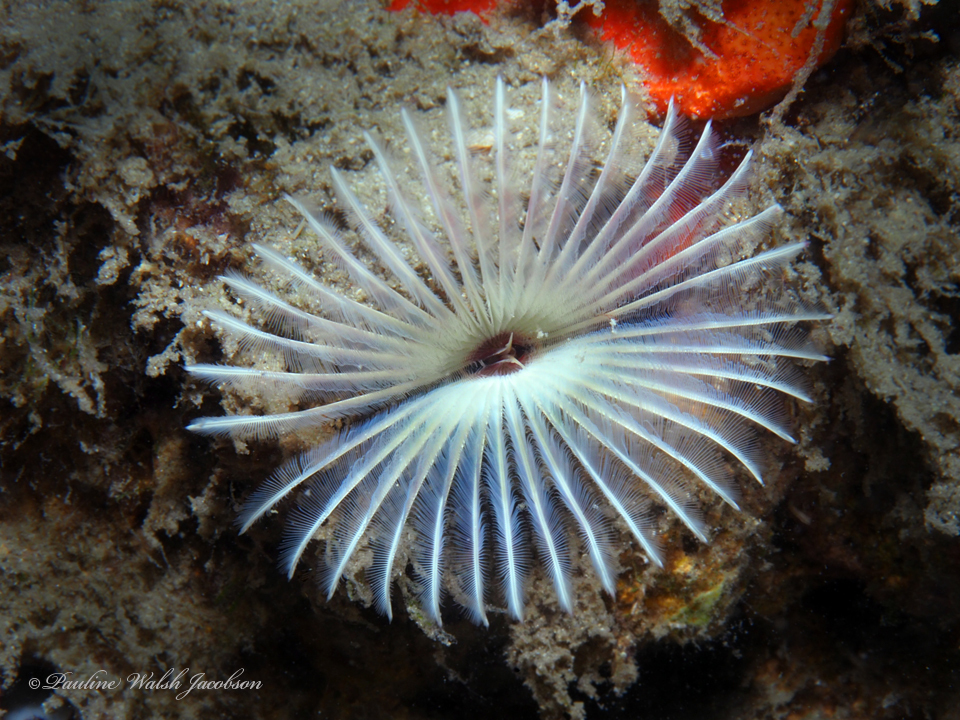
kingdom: Animalia
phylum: Annelida
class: Polychaeta
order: Sabellida
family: Sabellidae
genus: Anamobaea
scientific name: Anamobaea orstedii
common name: Split-crown feather duster
